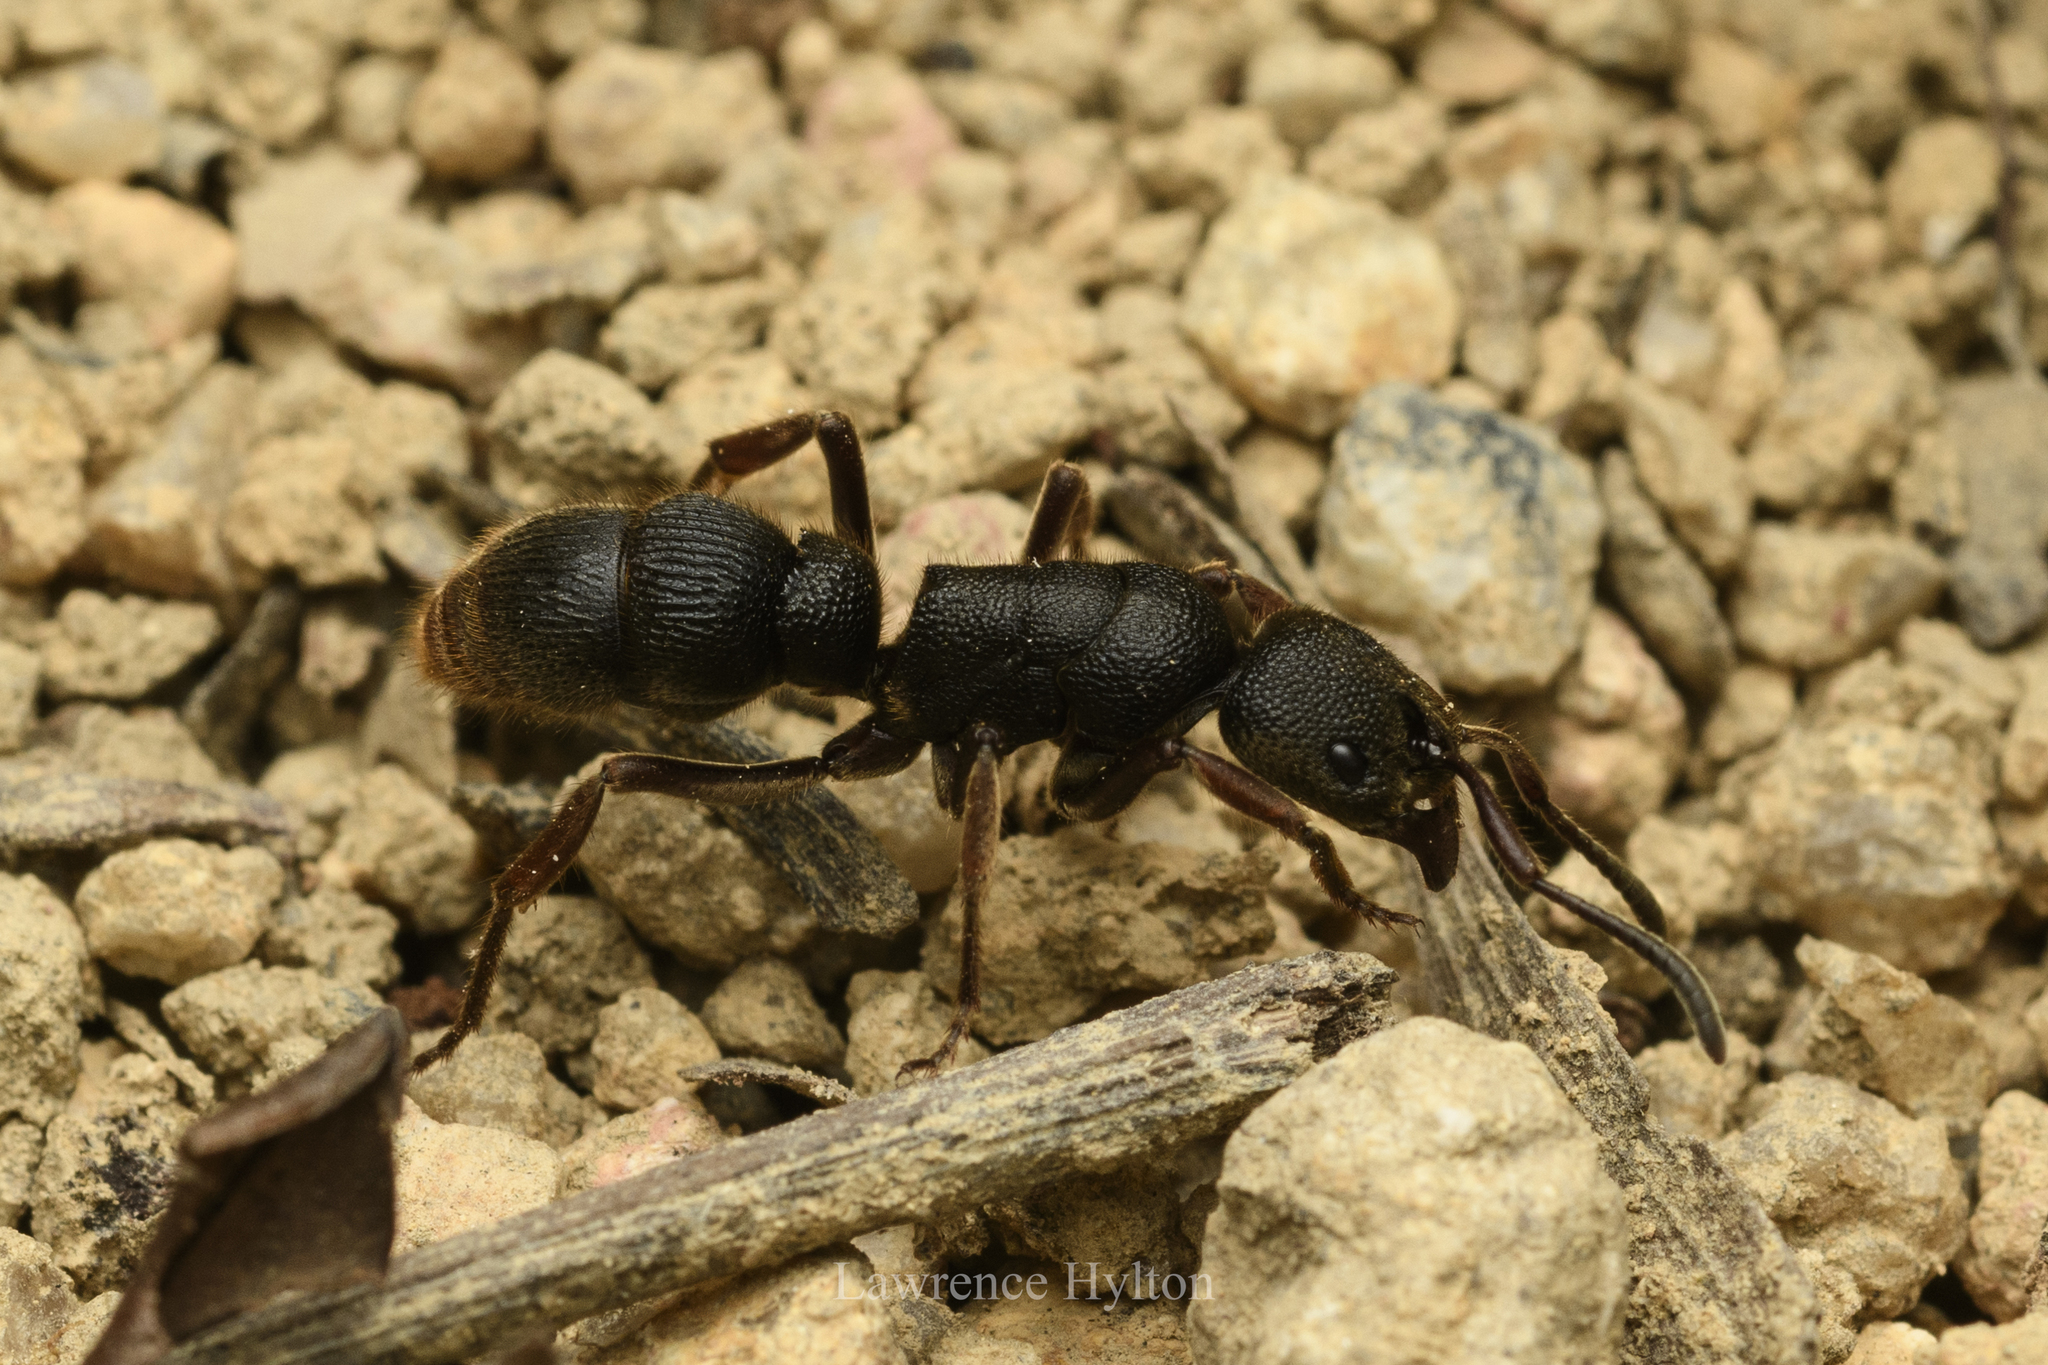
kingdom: Animalia
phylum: Arthropoda
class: Insecta
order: Hymenoptera
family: Formicidae
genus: Pseudoneoponera
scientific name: Pseudoneoponera rufipes
